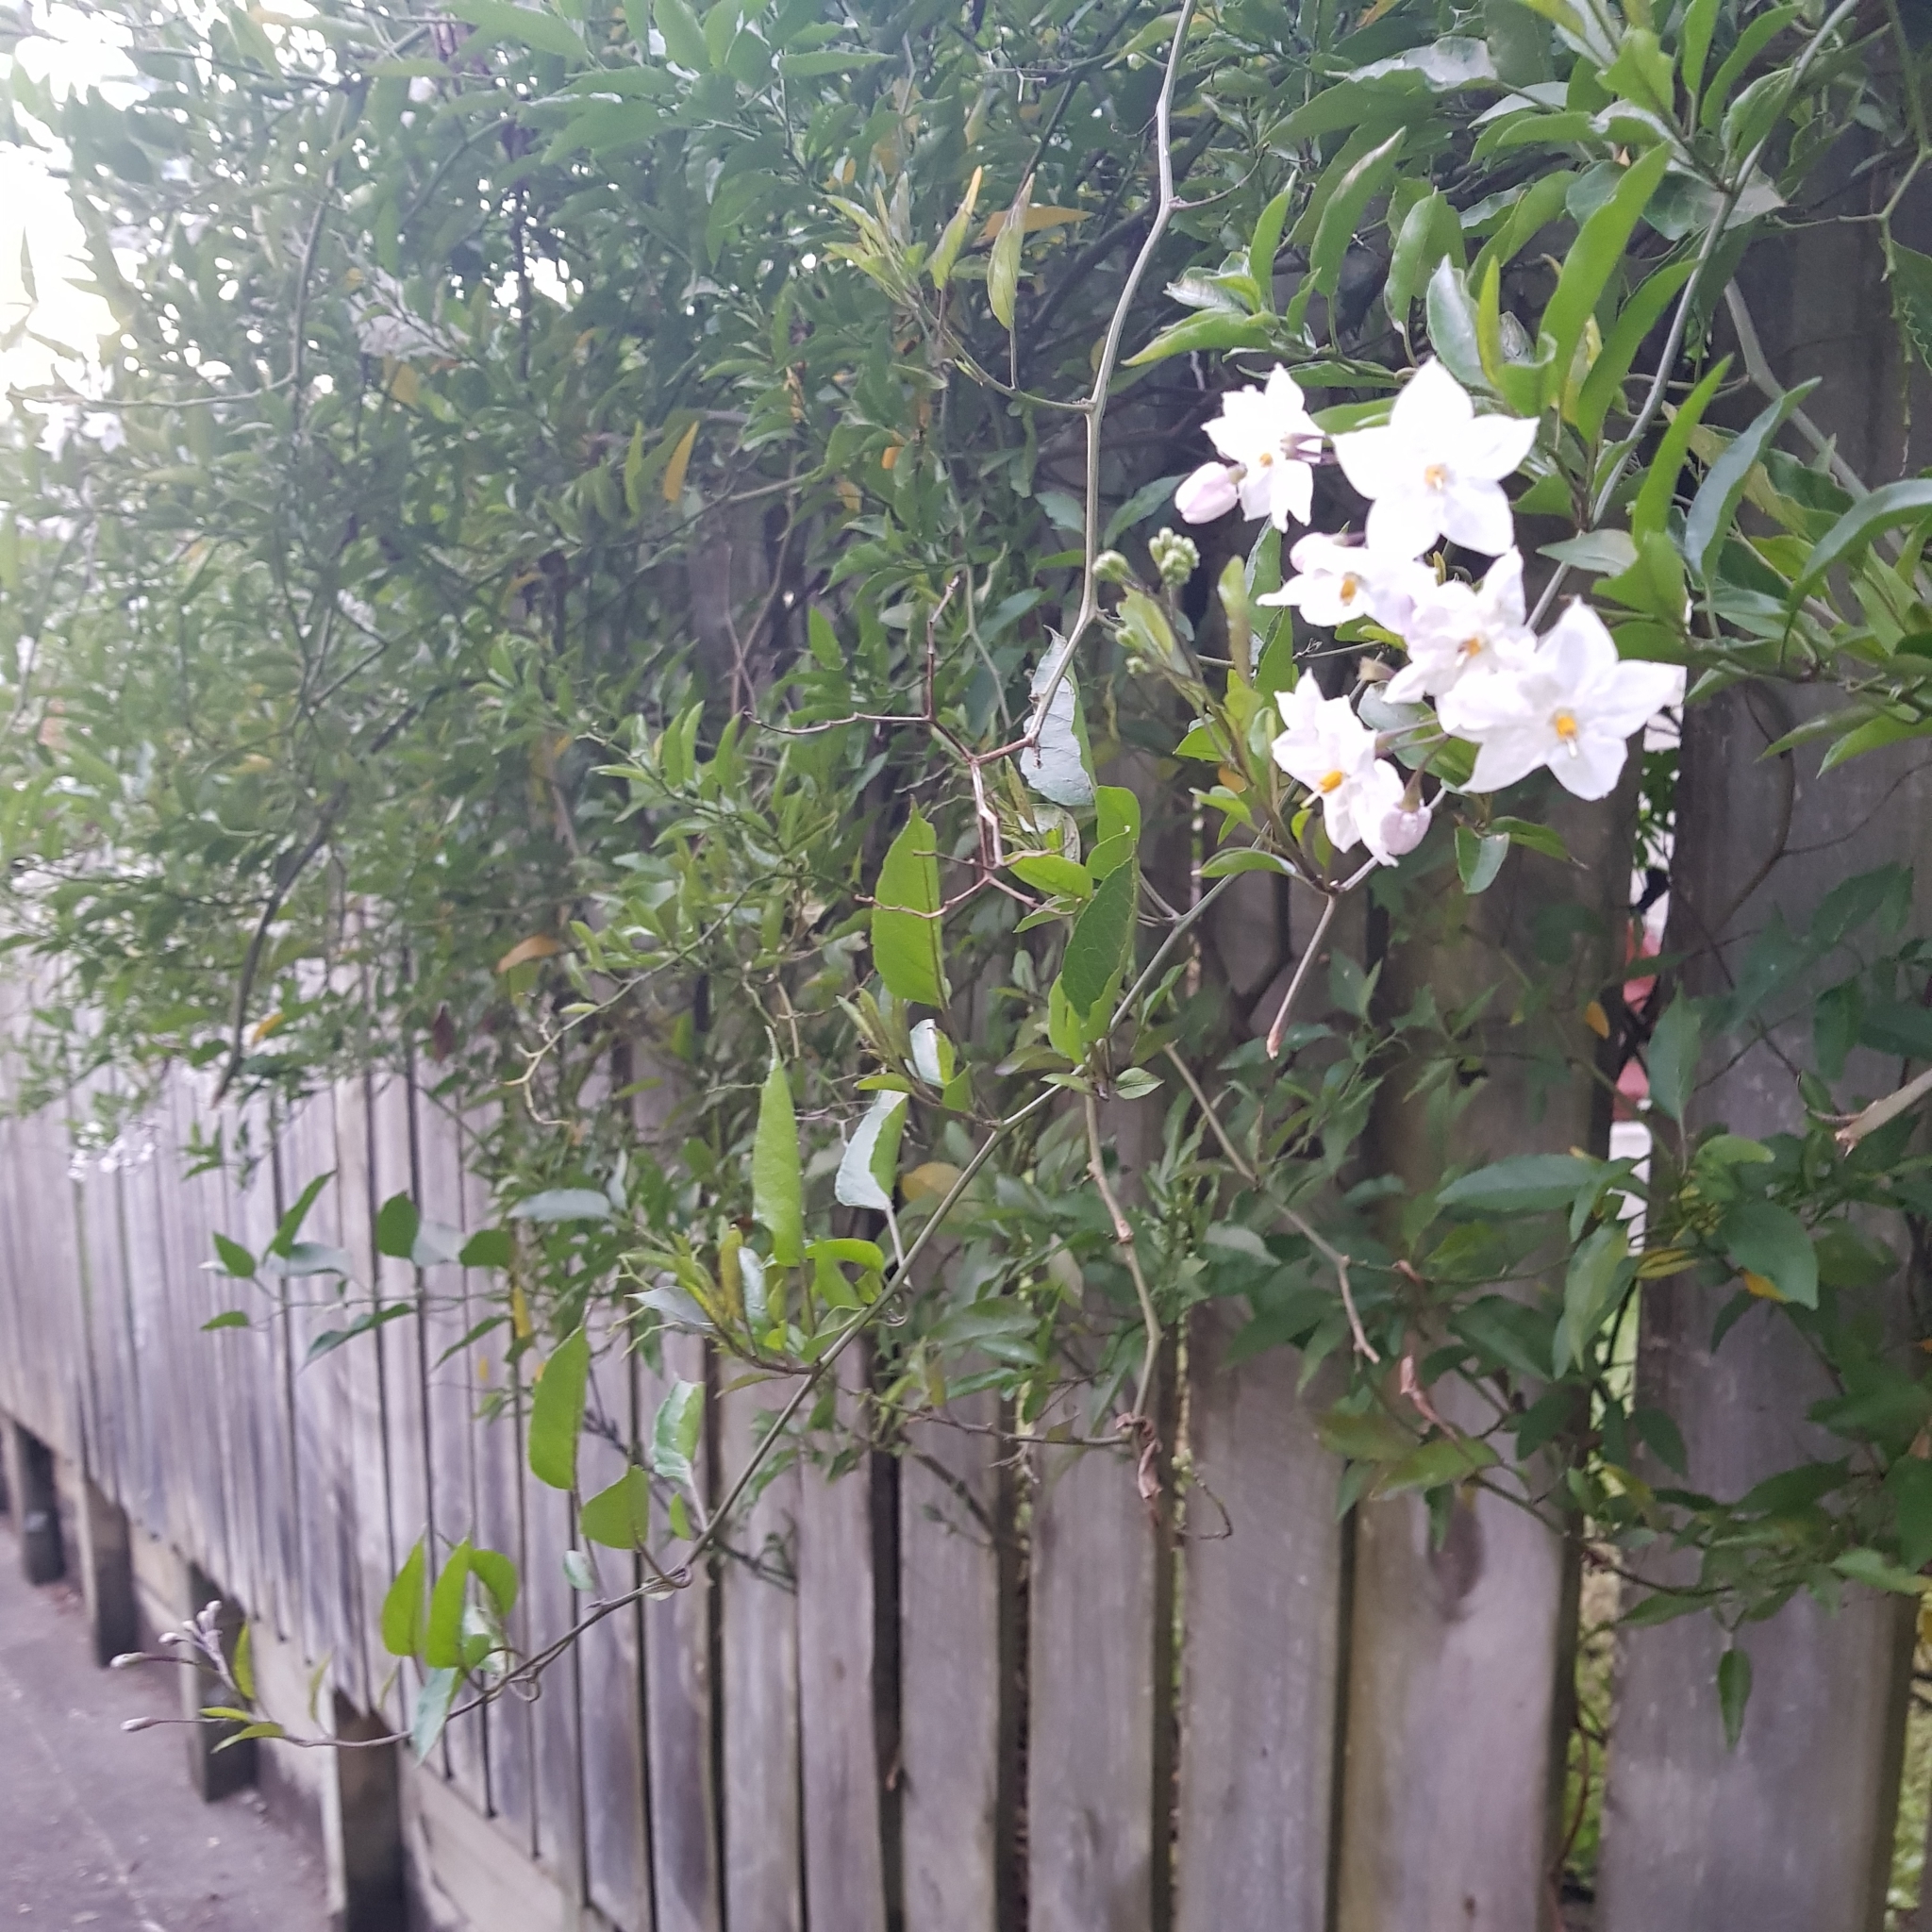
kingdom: Plantae
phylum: Tracheophyta
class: Magnoliopsida
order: Solanales
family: Solanaceae
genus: Solanum
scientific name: Solanum laxum
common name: Nightshade
